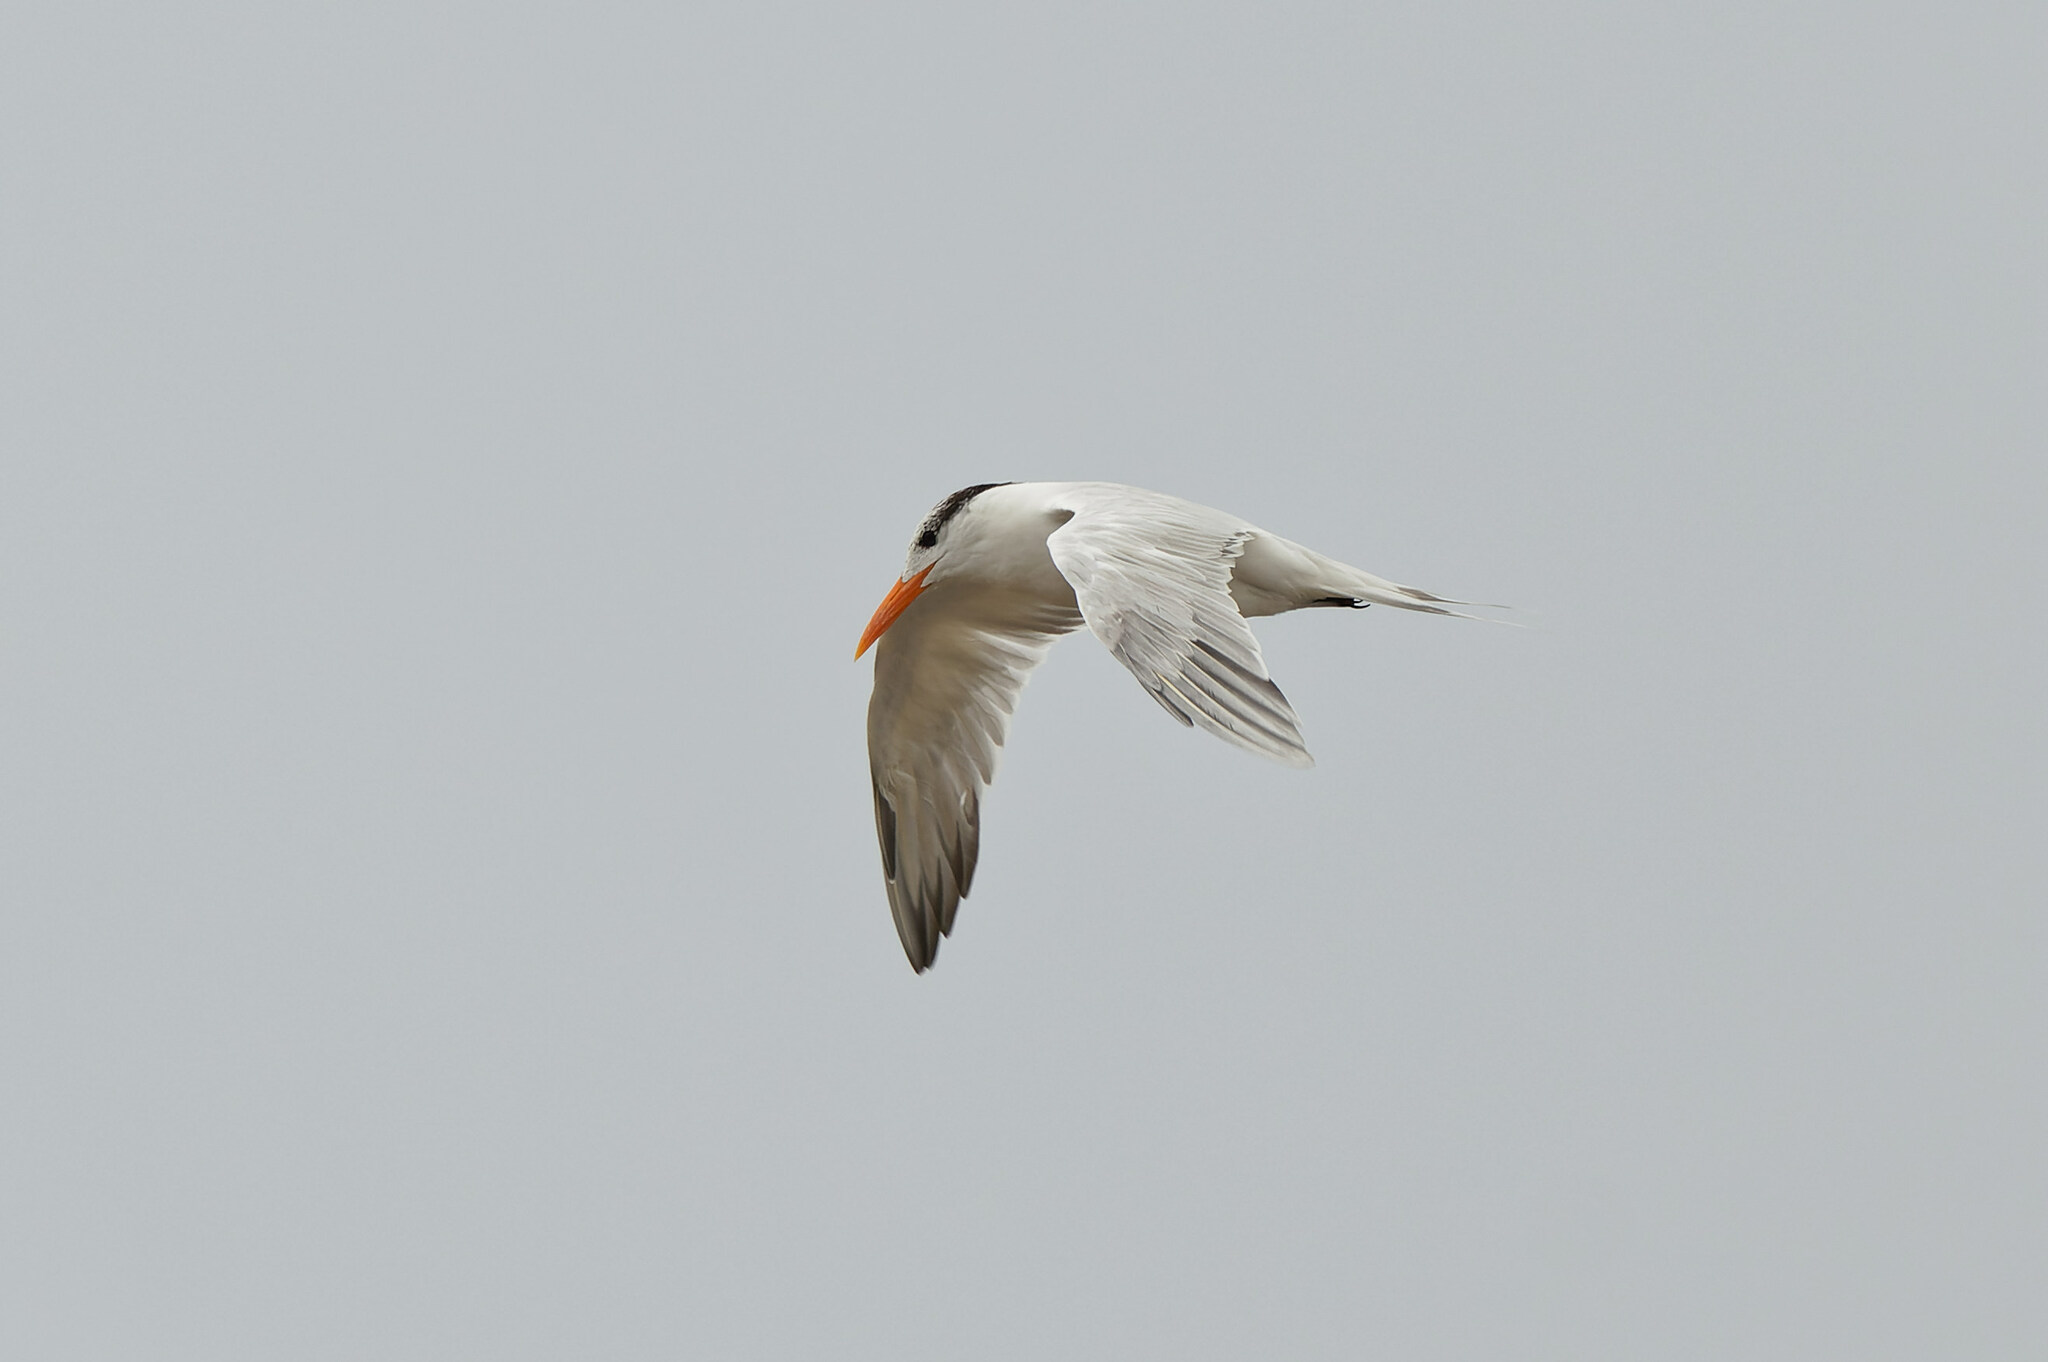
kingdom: Animalia
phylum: Chordata
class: Aves
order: Charadriiformes
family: Laridae
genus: Thalasseus
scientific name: Thalasseus maximus
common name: Royal tern
